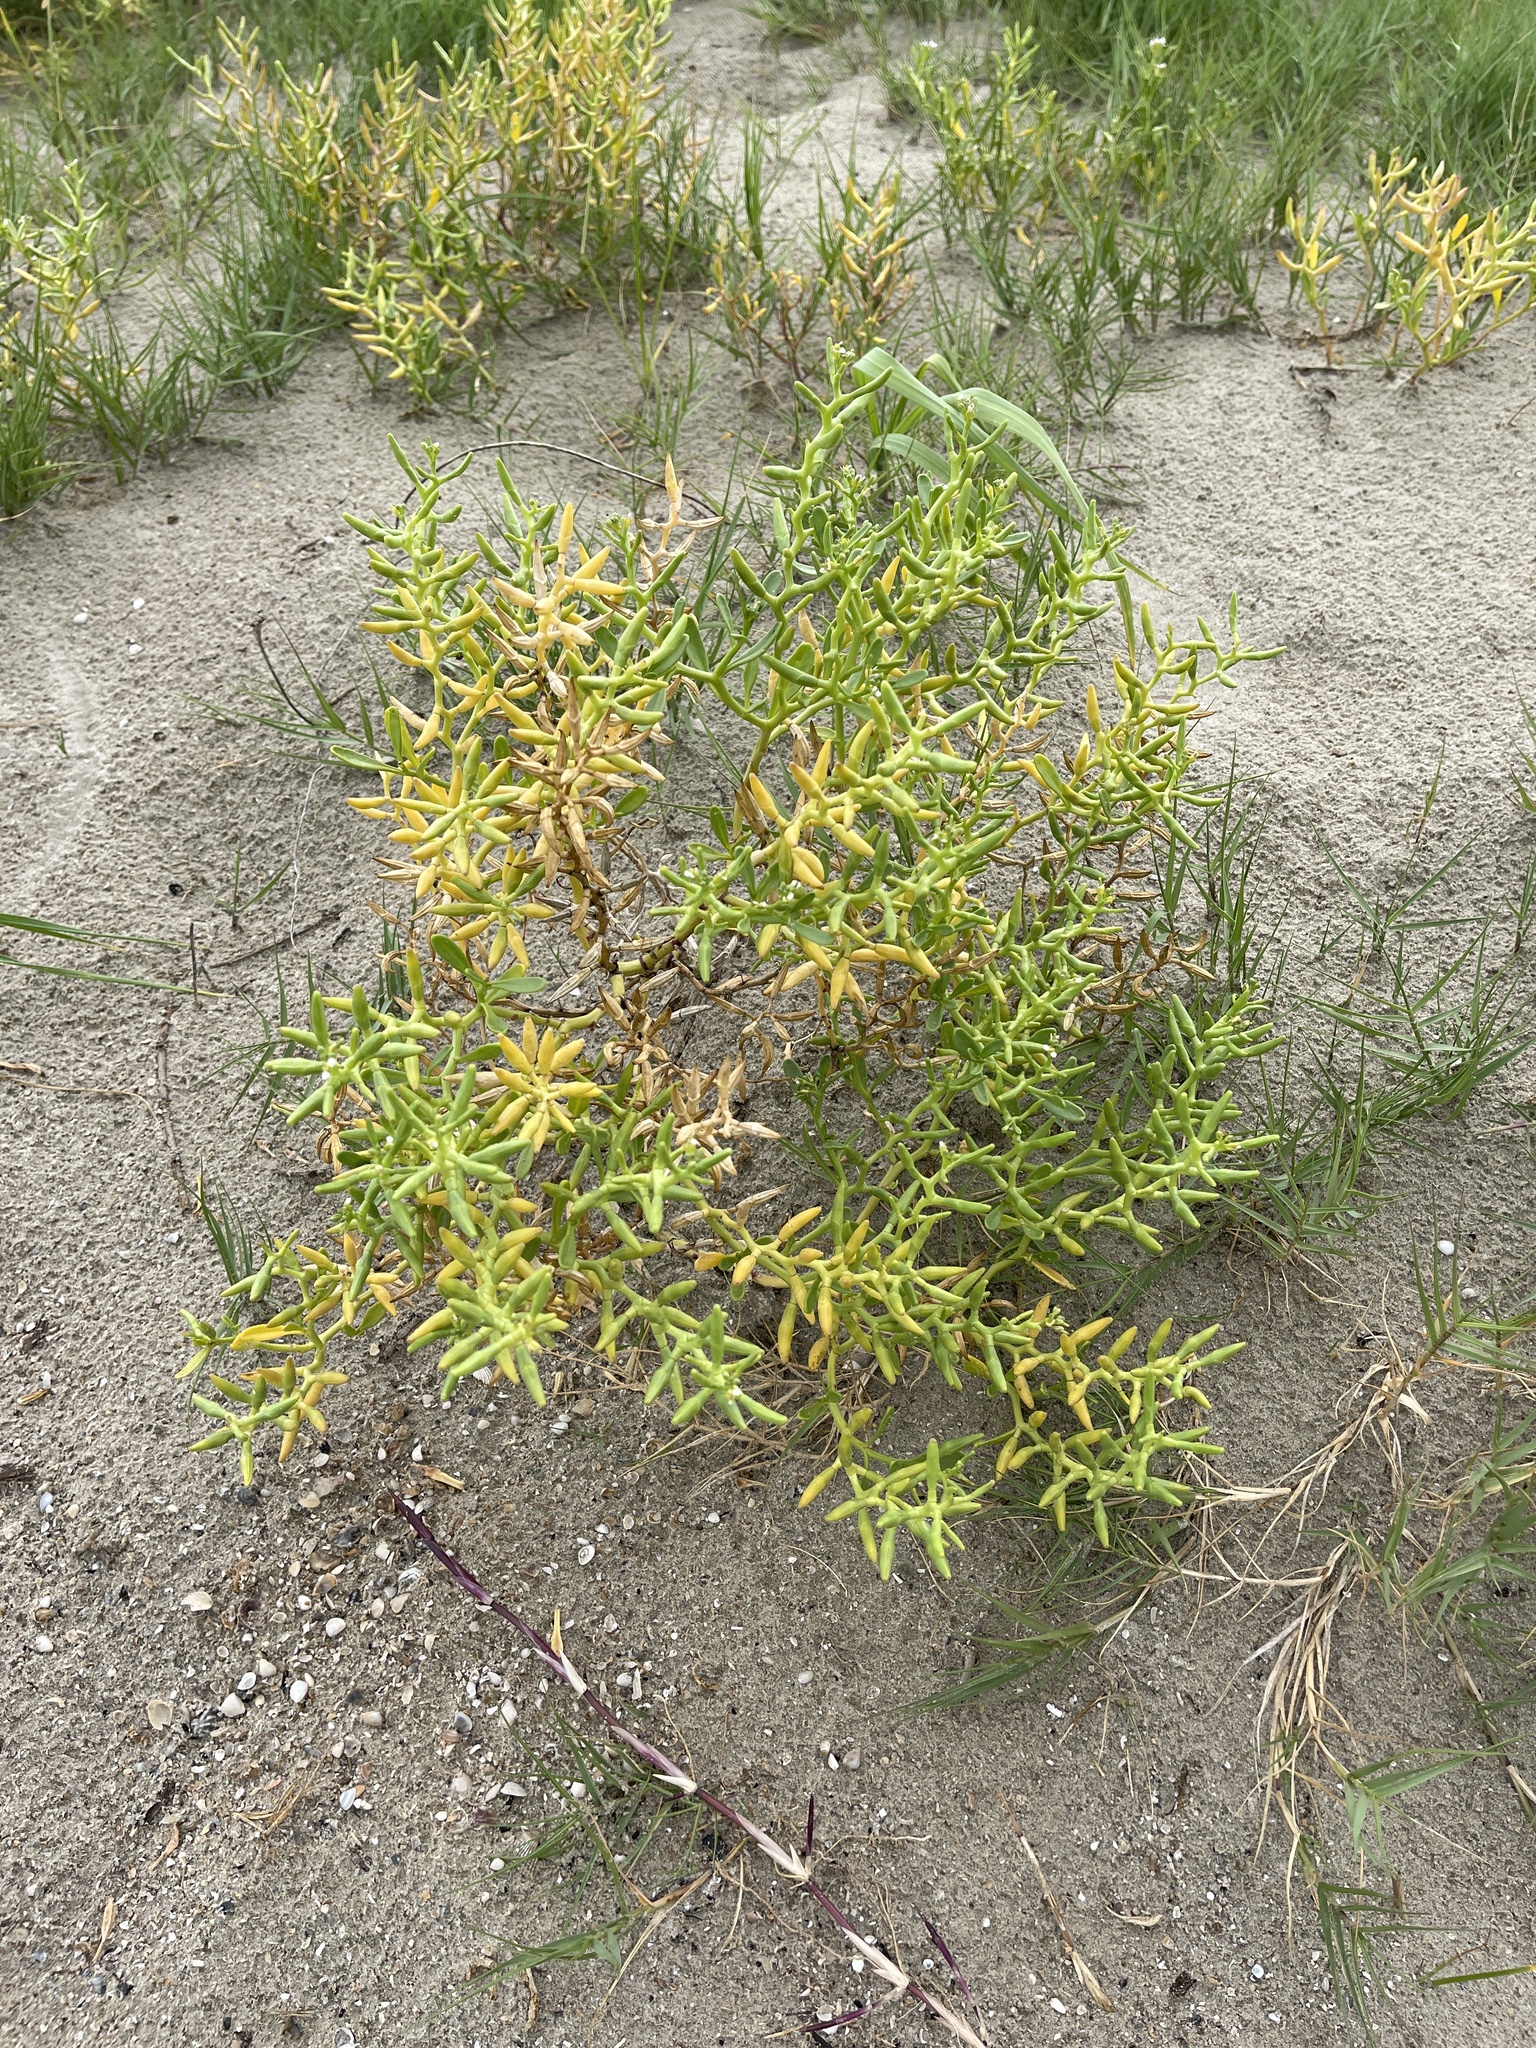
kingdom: Plantae
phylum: Tracheophyta
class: Magnoliopsida
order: Brassicales
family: Bataceae
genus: Batis
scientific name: Batis maritima
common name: Turtleweed
